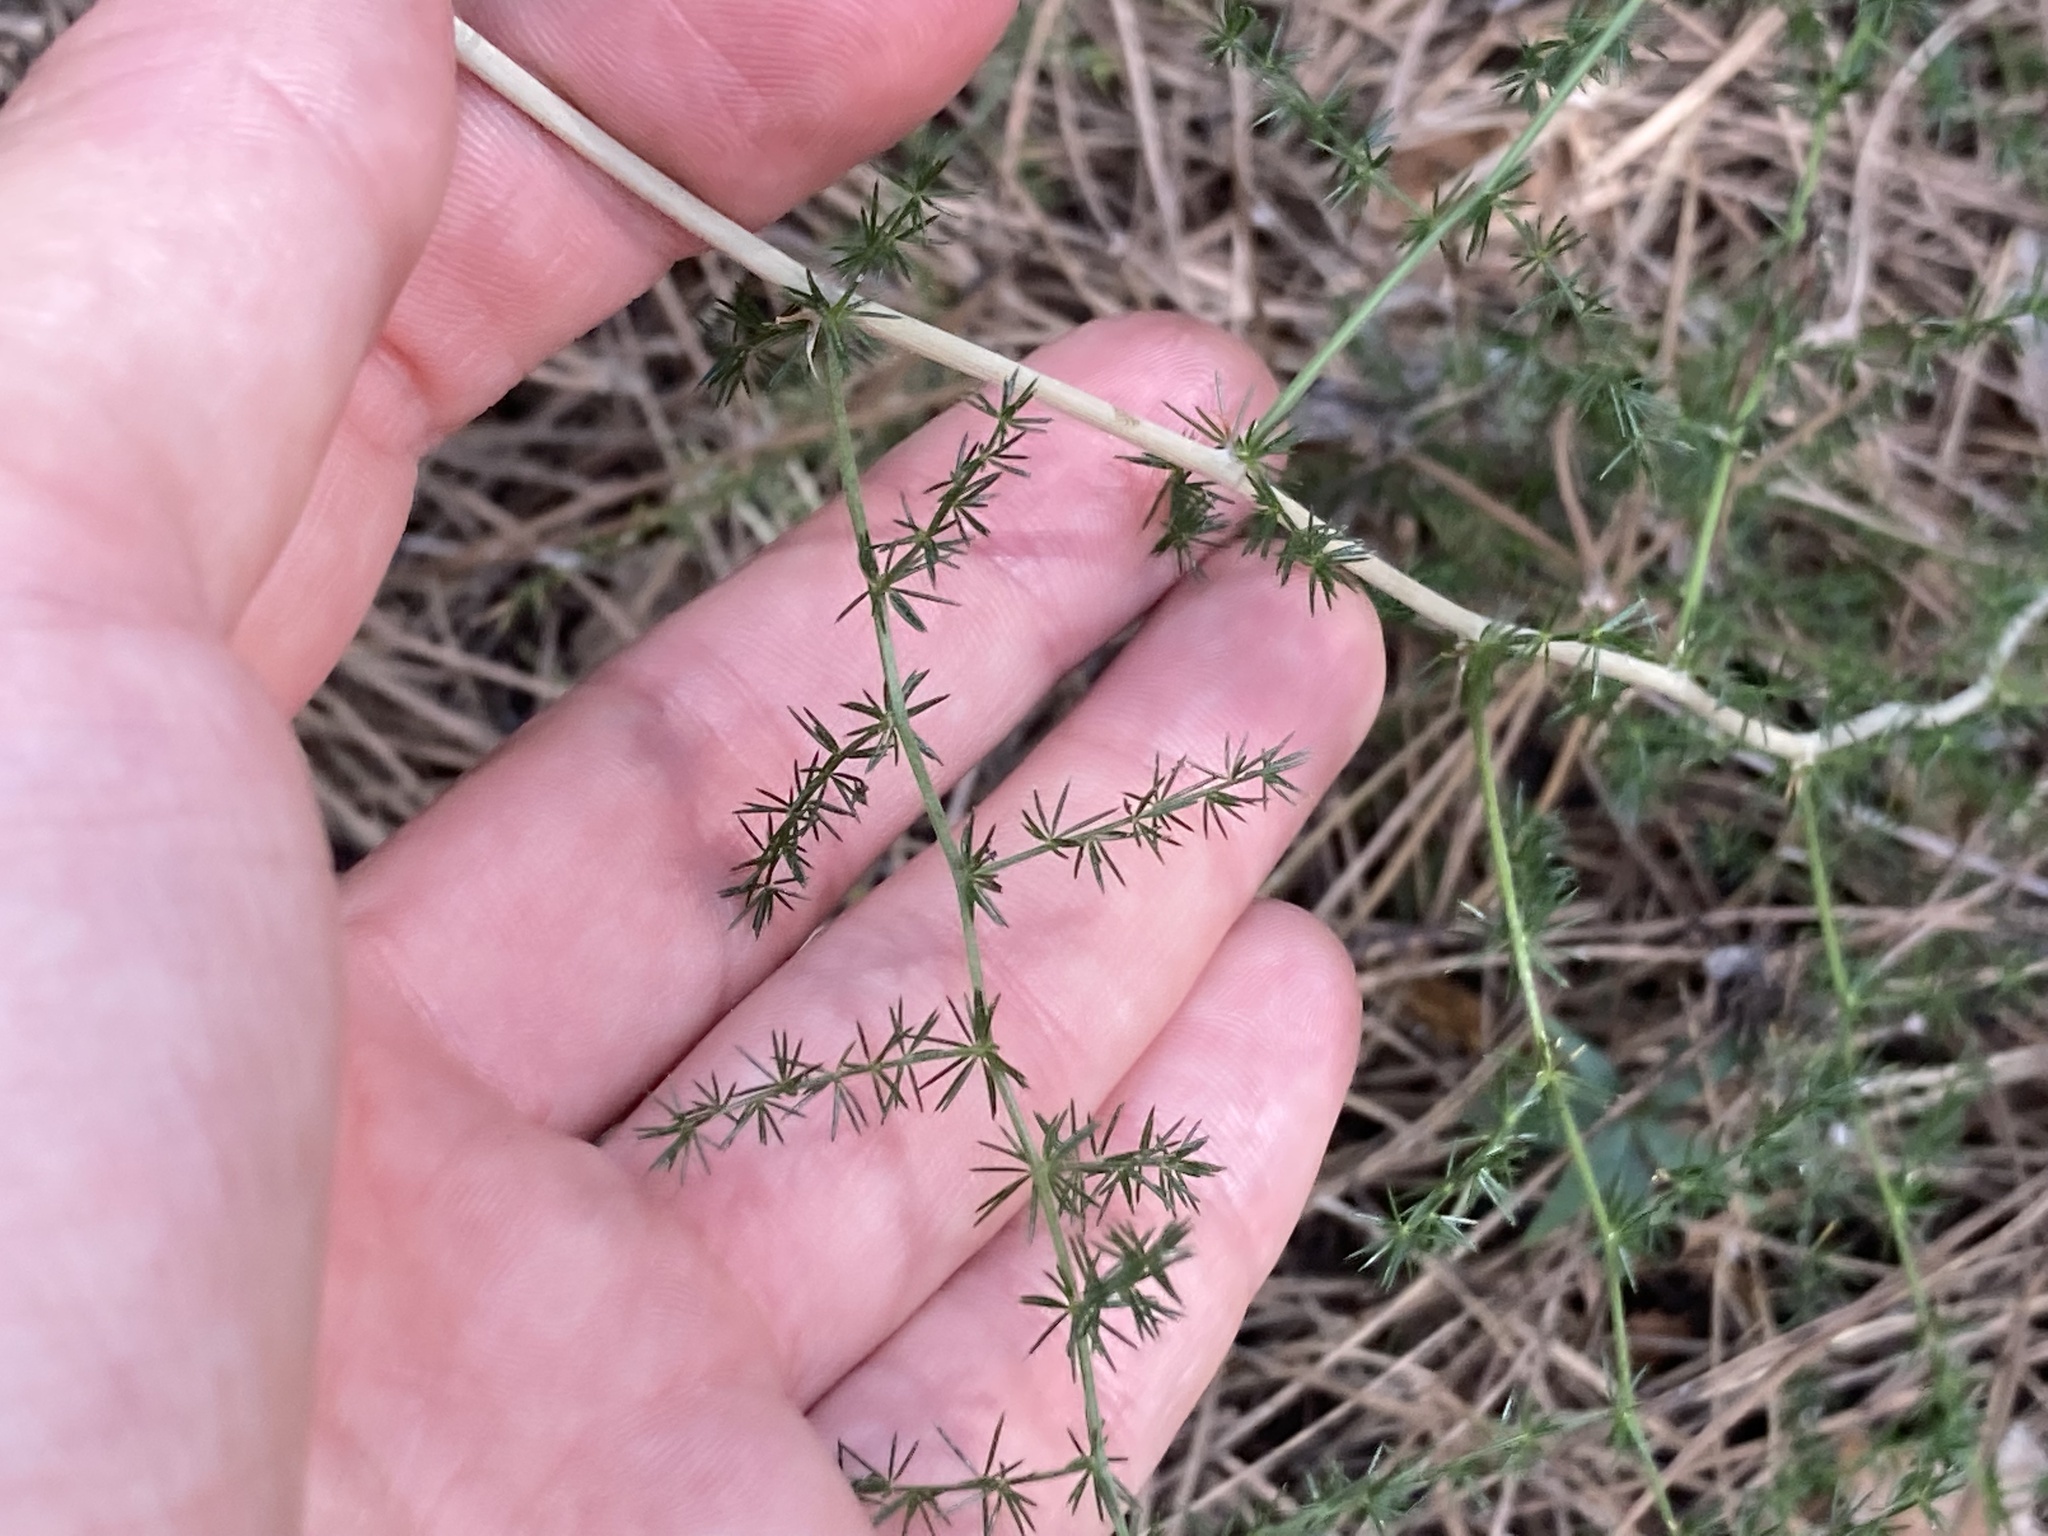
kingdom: Plantae
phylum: Tracheophyta
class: Liliopsida
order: Asparagales
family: Asparagaceae
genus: Asparagus
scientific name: Asparagus acutifolius
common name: Wild asparagus
